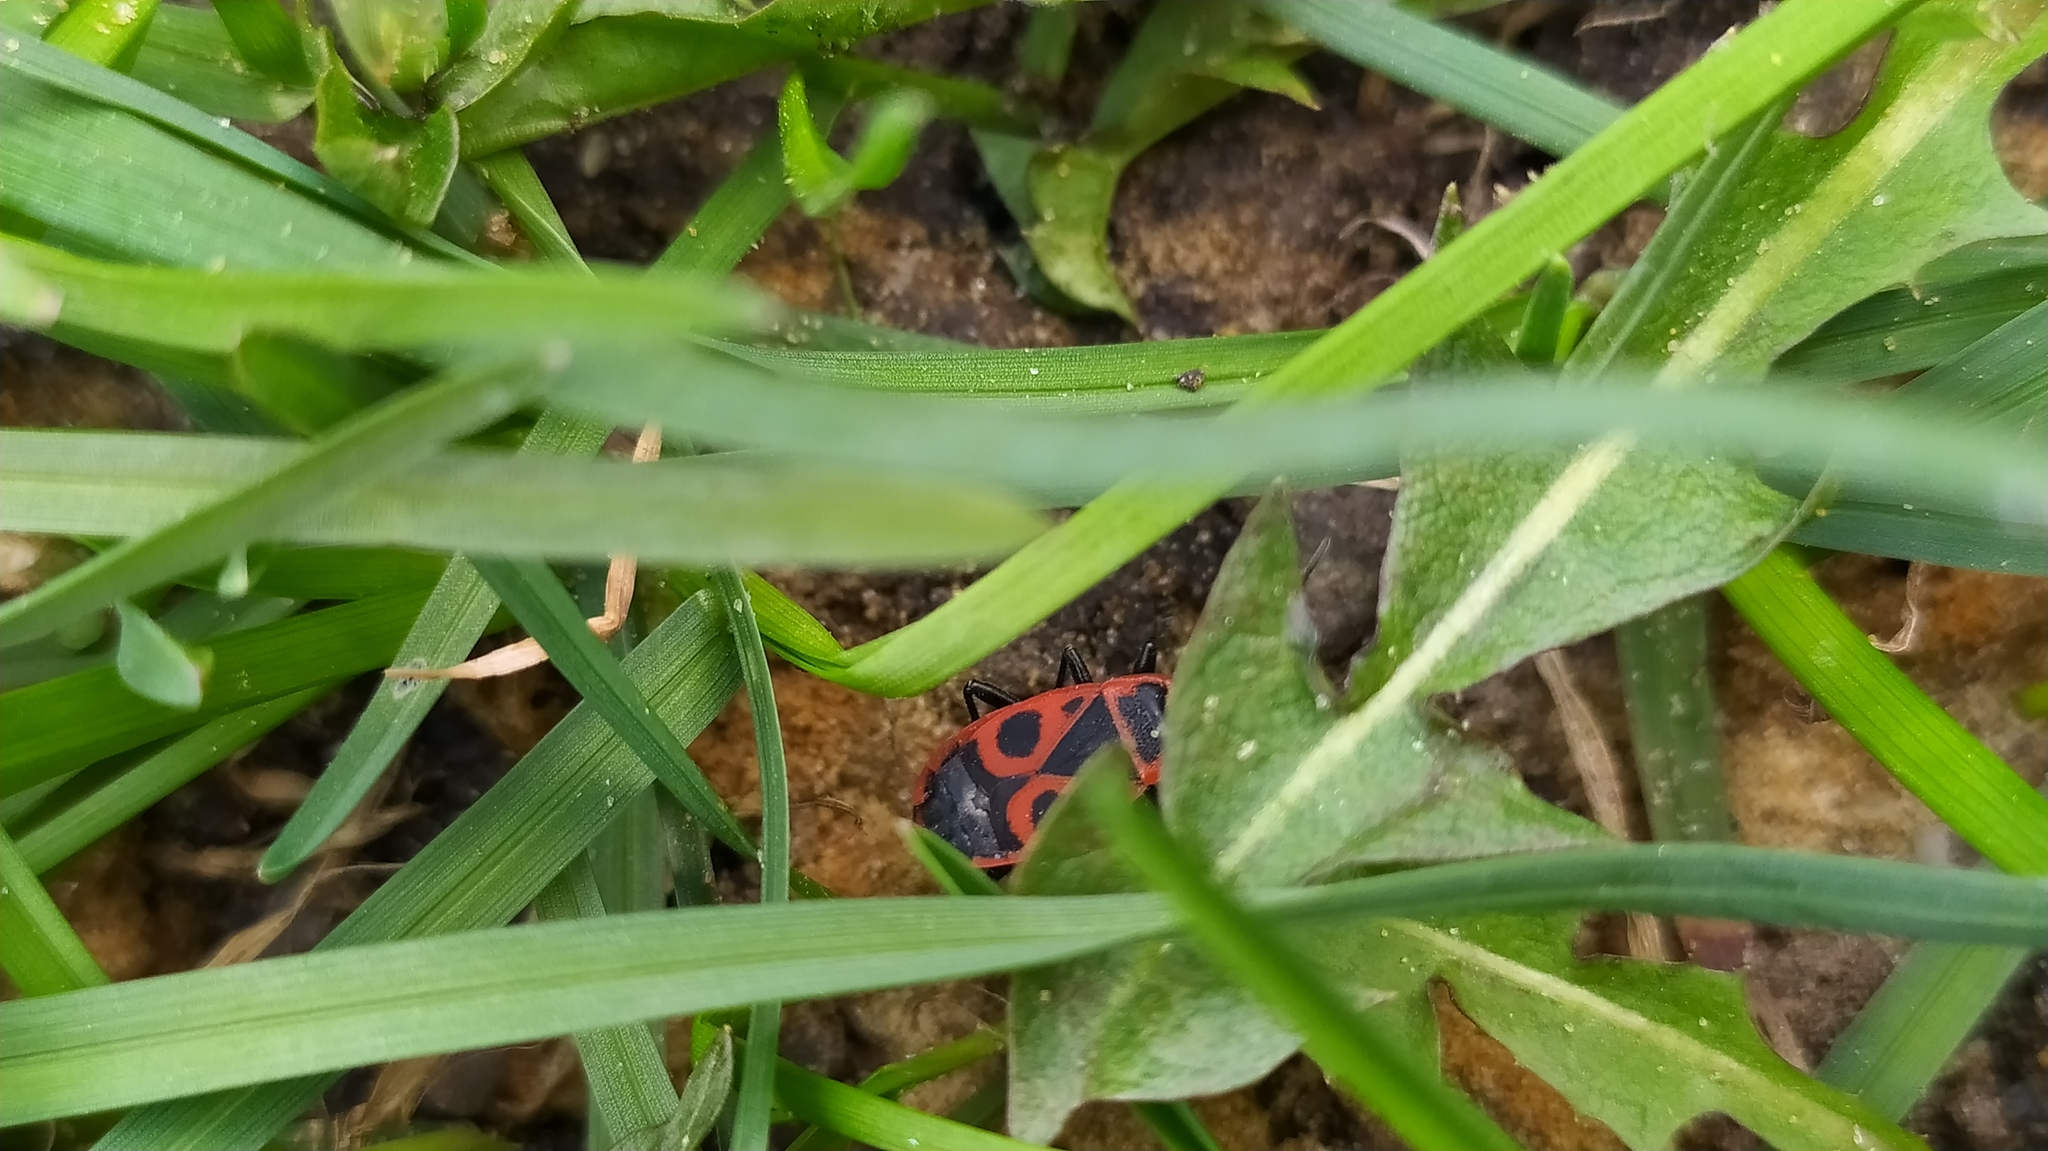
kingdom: Animalia
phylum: Arthropoda
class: Insecta
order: Hemiptera
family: Pyrrhocoridae
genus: Pyrrhocoris
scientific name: Pyrrhocoris apterus
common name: Firebug
